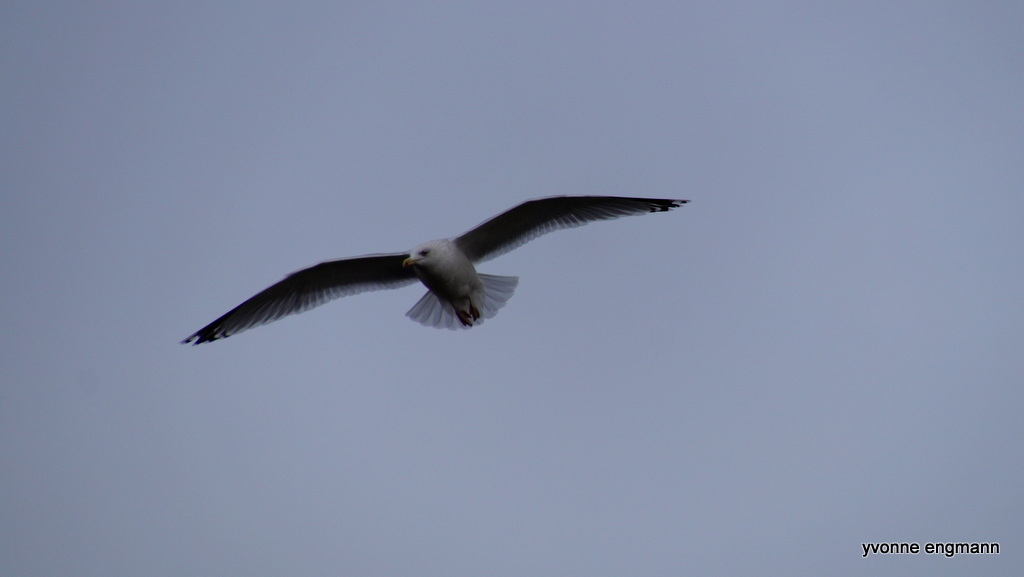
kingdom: Animalia
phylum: Chordata
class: Aves
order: Charadriiformes
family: Laridae
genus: Larus
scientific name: Larus argentatus
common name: Herring gull
